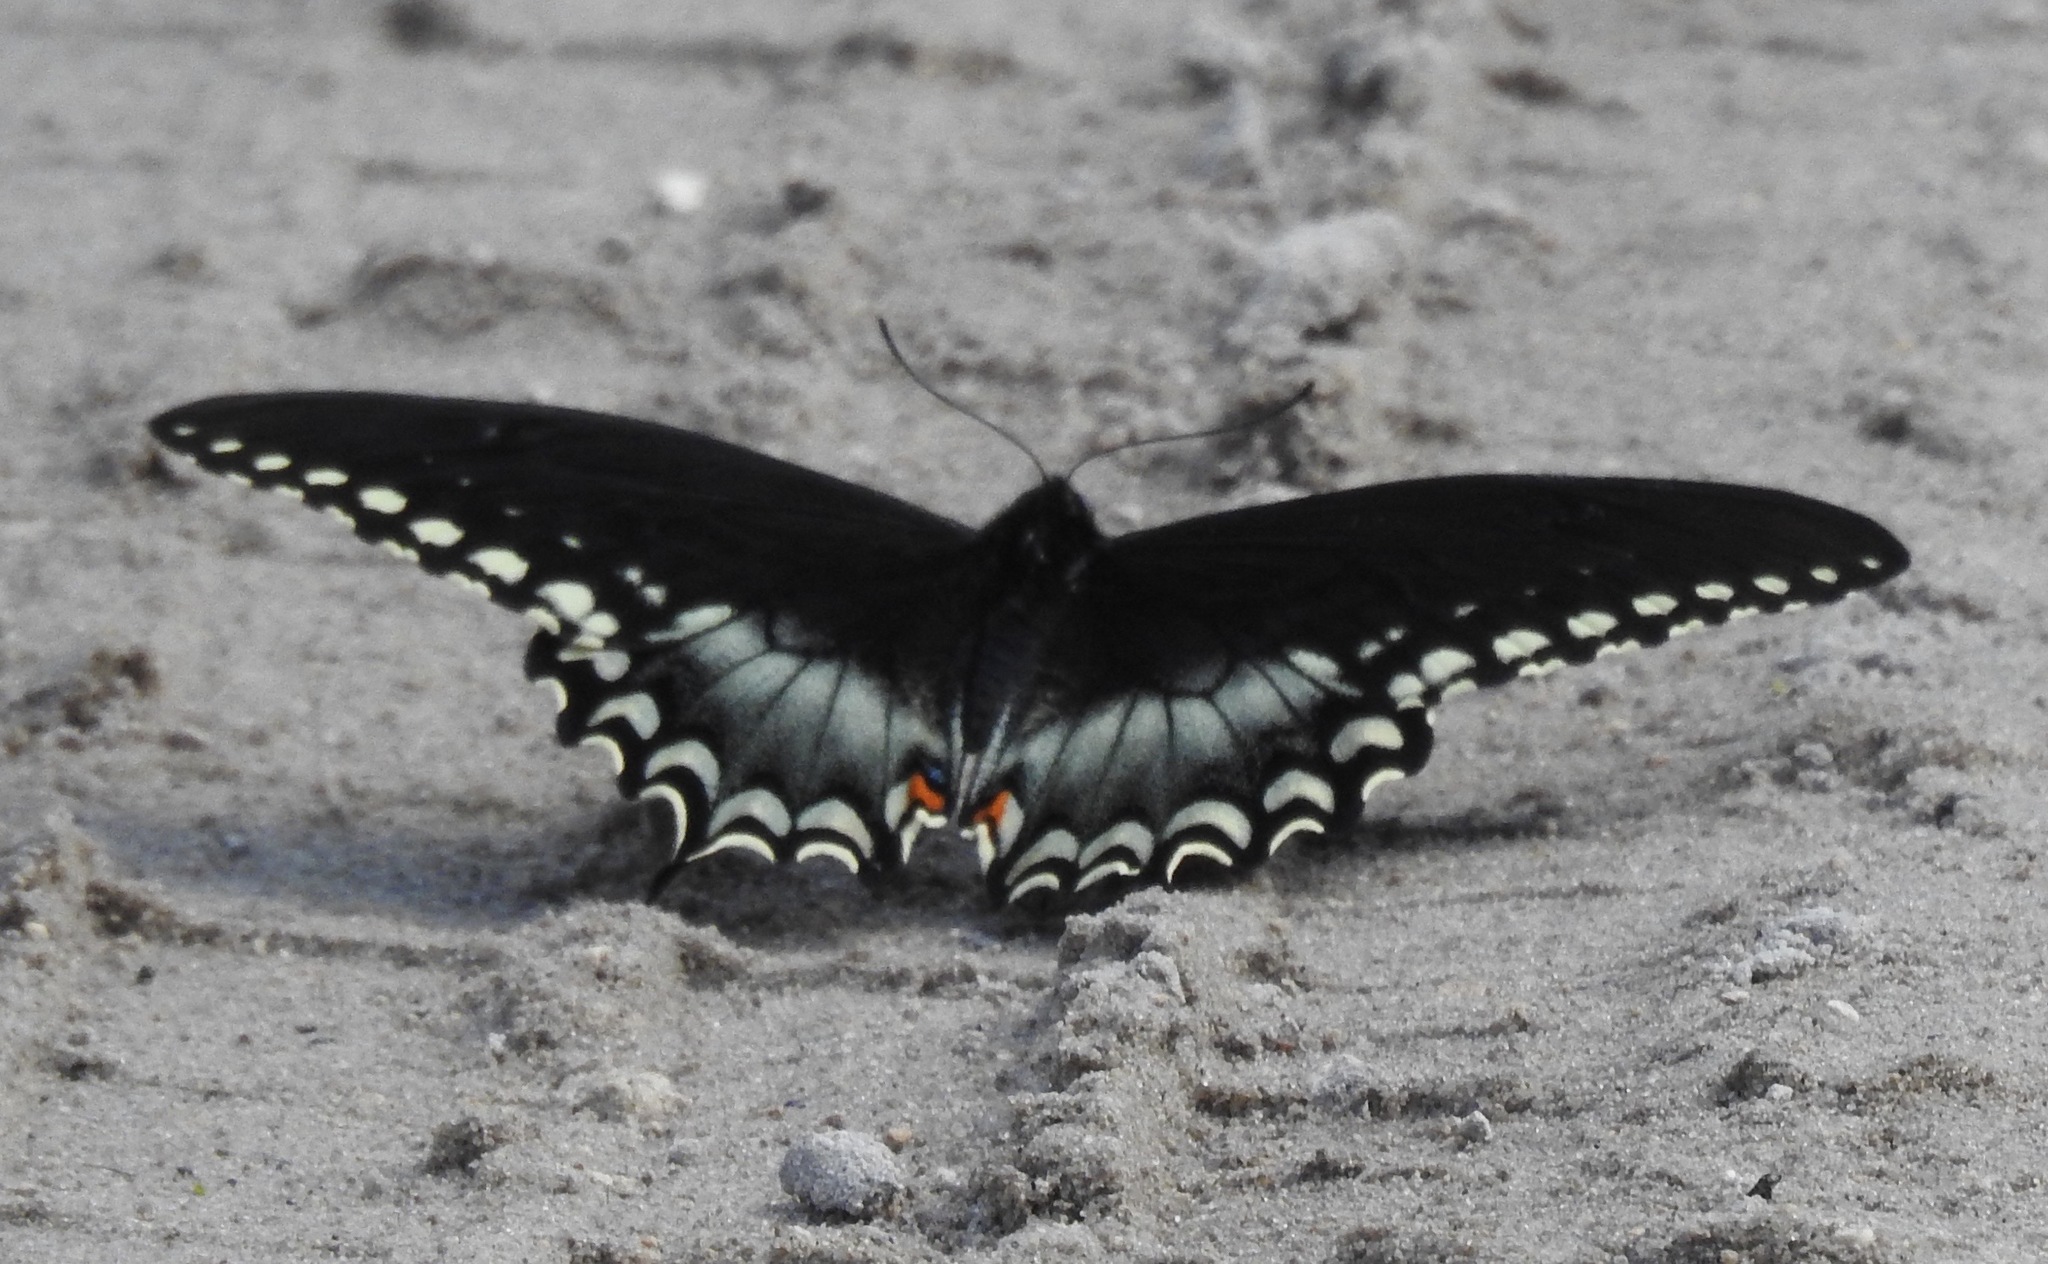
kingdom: Animalia
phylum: Arthropoda
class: Insecta
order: Lepidoptera
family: Papilionidae
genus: Papilio
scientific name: Papilio troilus
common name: Spicebush swallowtail
